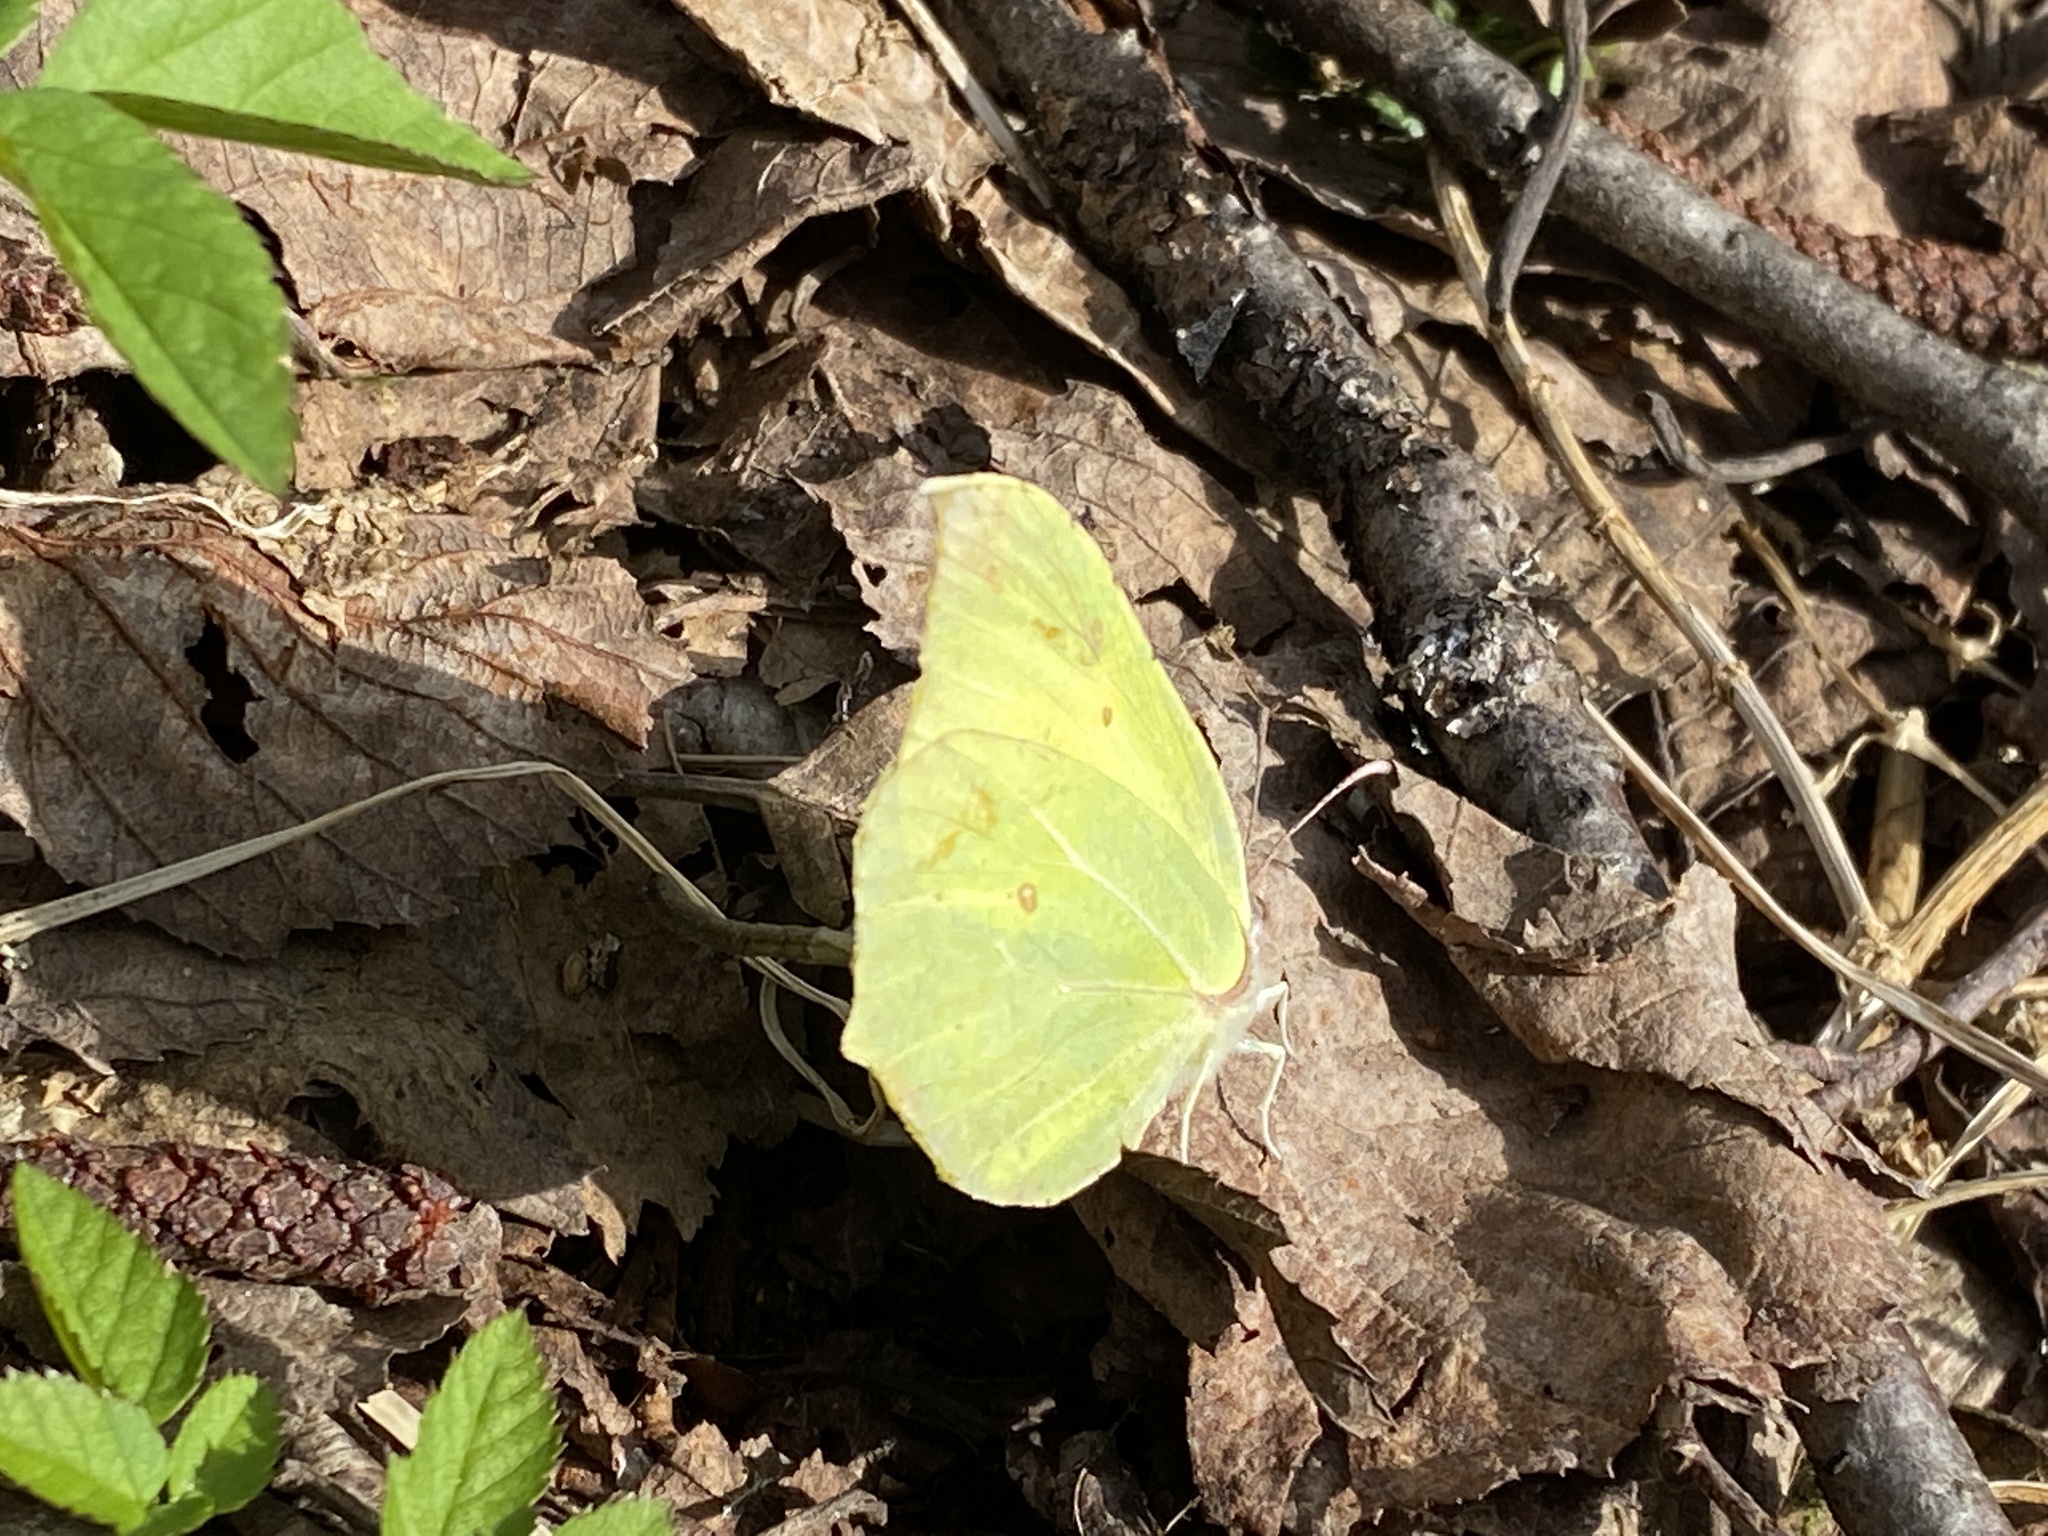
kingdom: Animalia
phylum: Arthropoda
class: Insecta
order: Lepidoptera
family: Pieridae
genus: Gonepteryx
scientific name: Gonepteryx rhamni
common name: Brimstone
